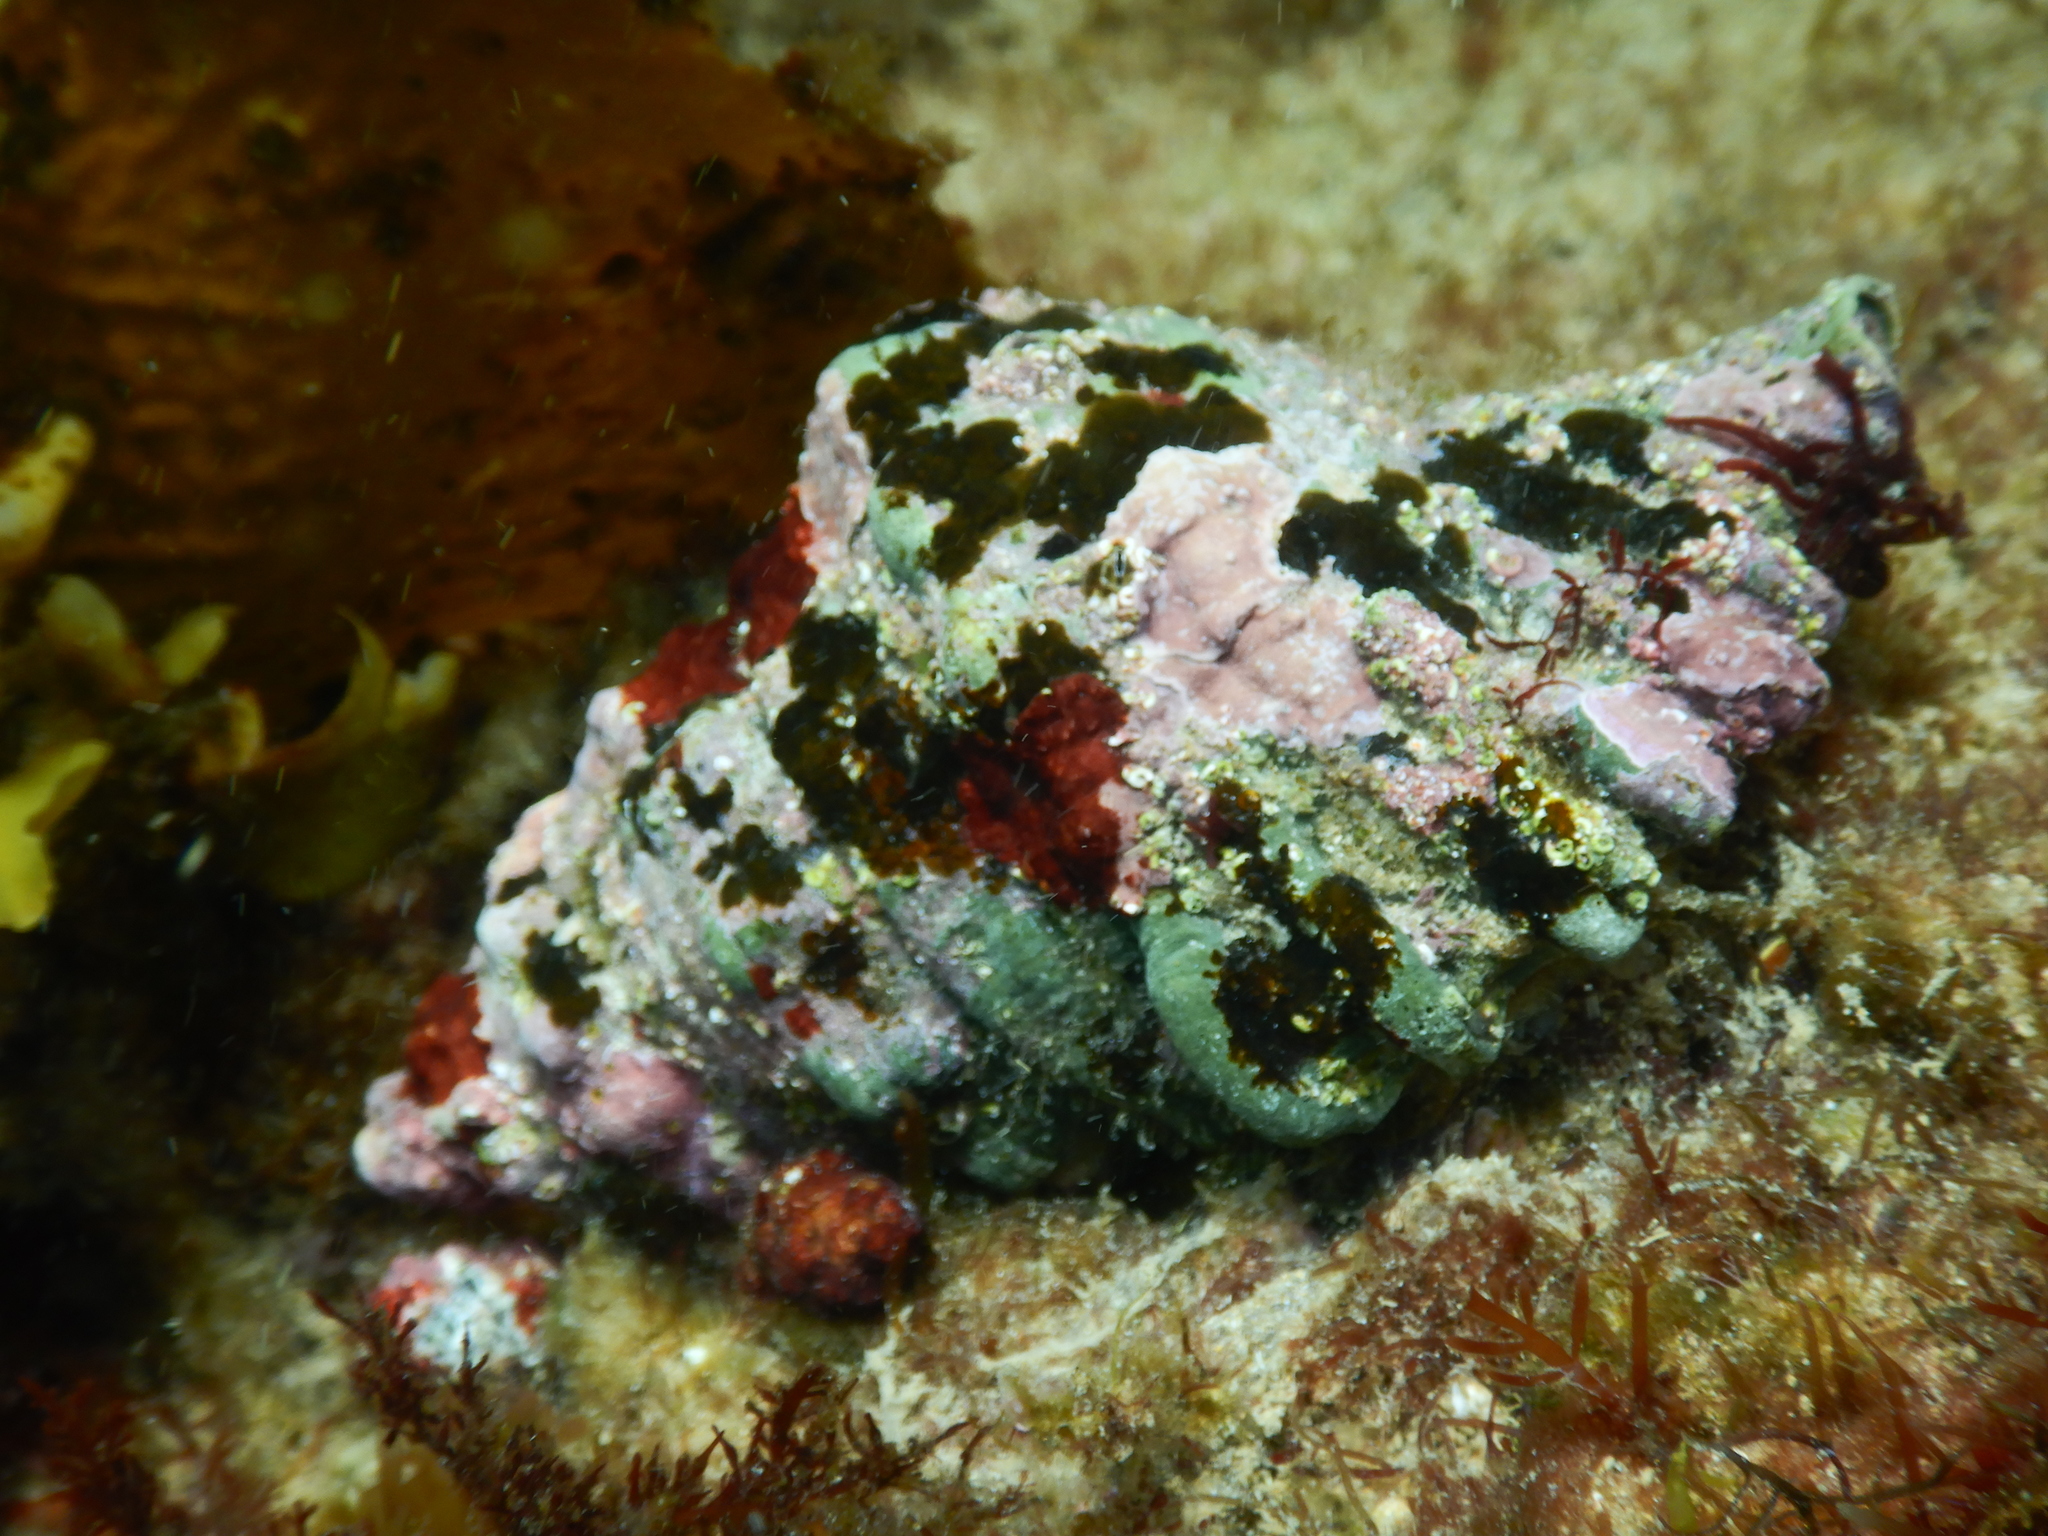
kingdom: Animalia
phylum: Mollusca
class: Gastropoda
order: Littorinimorpha
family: Cymatiidae
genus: Cabestana
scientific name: Cabestana spengleri
